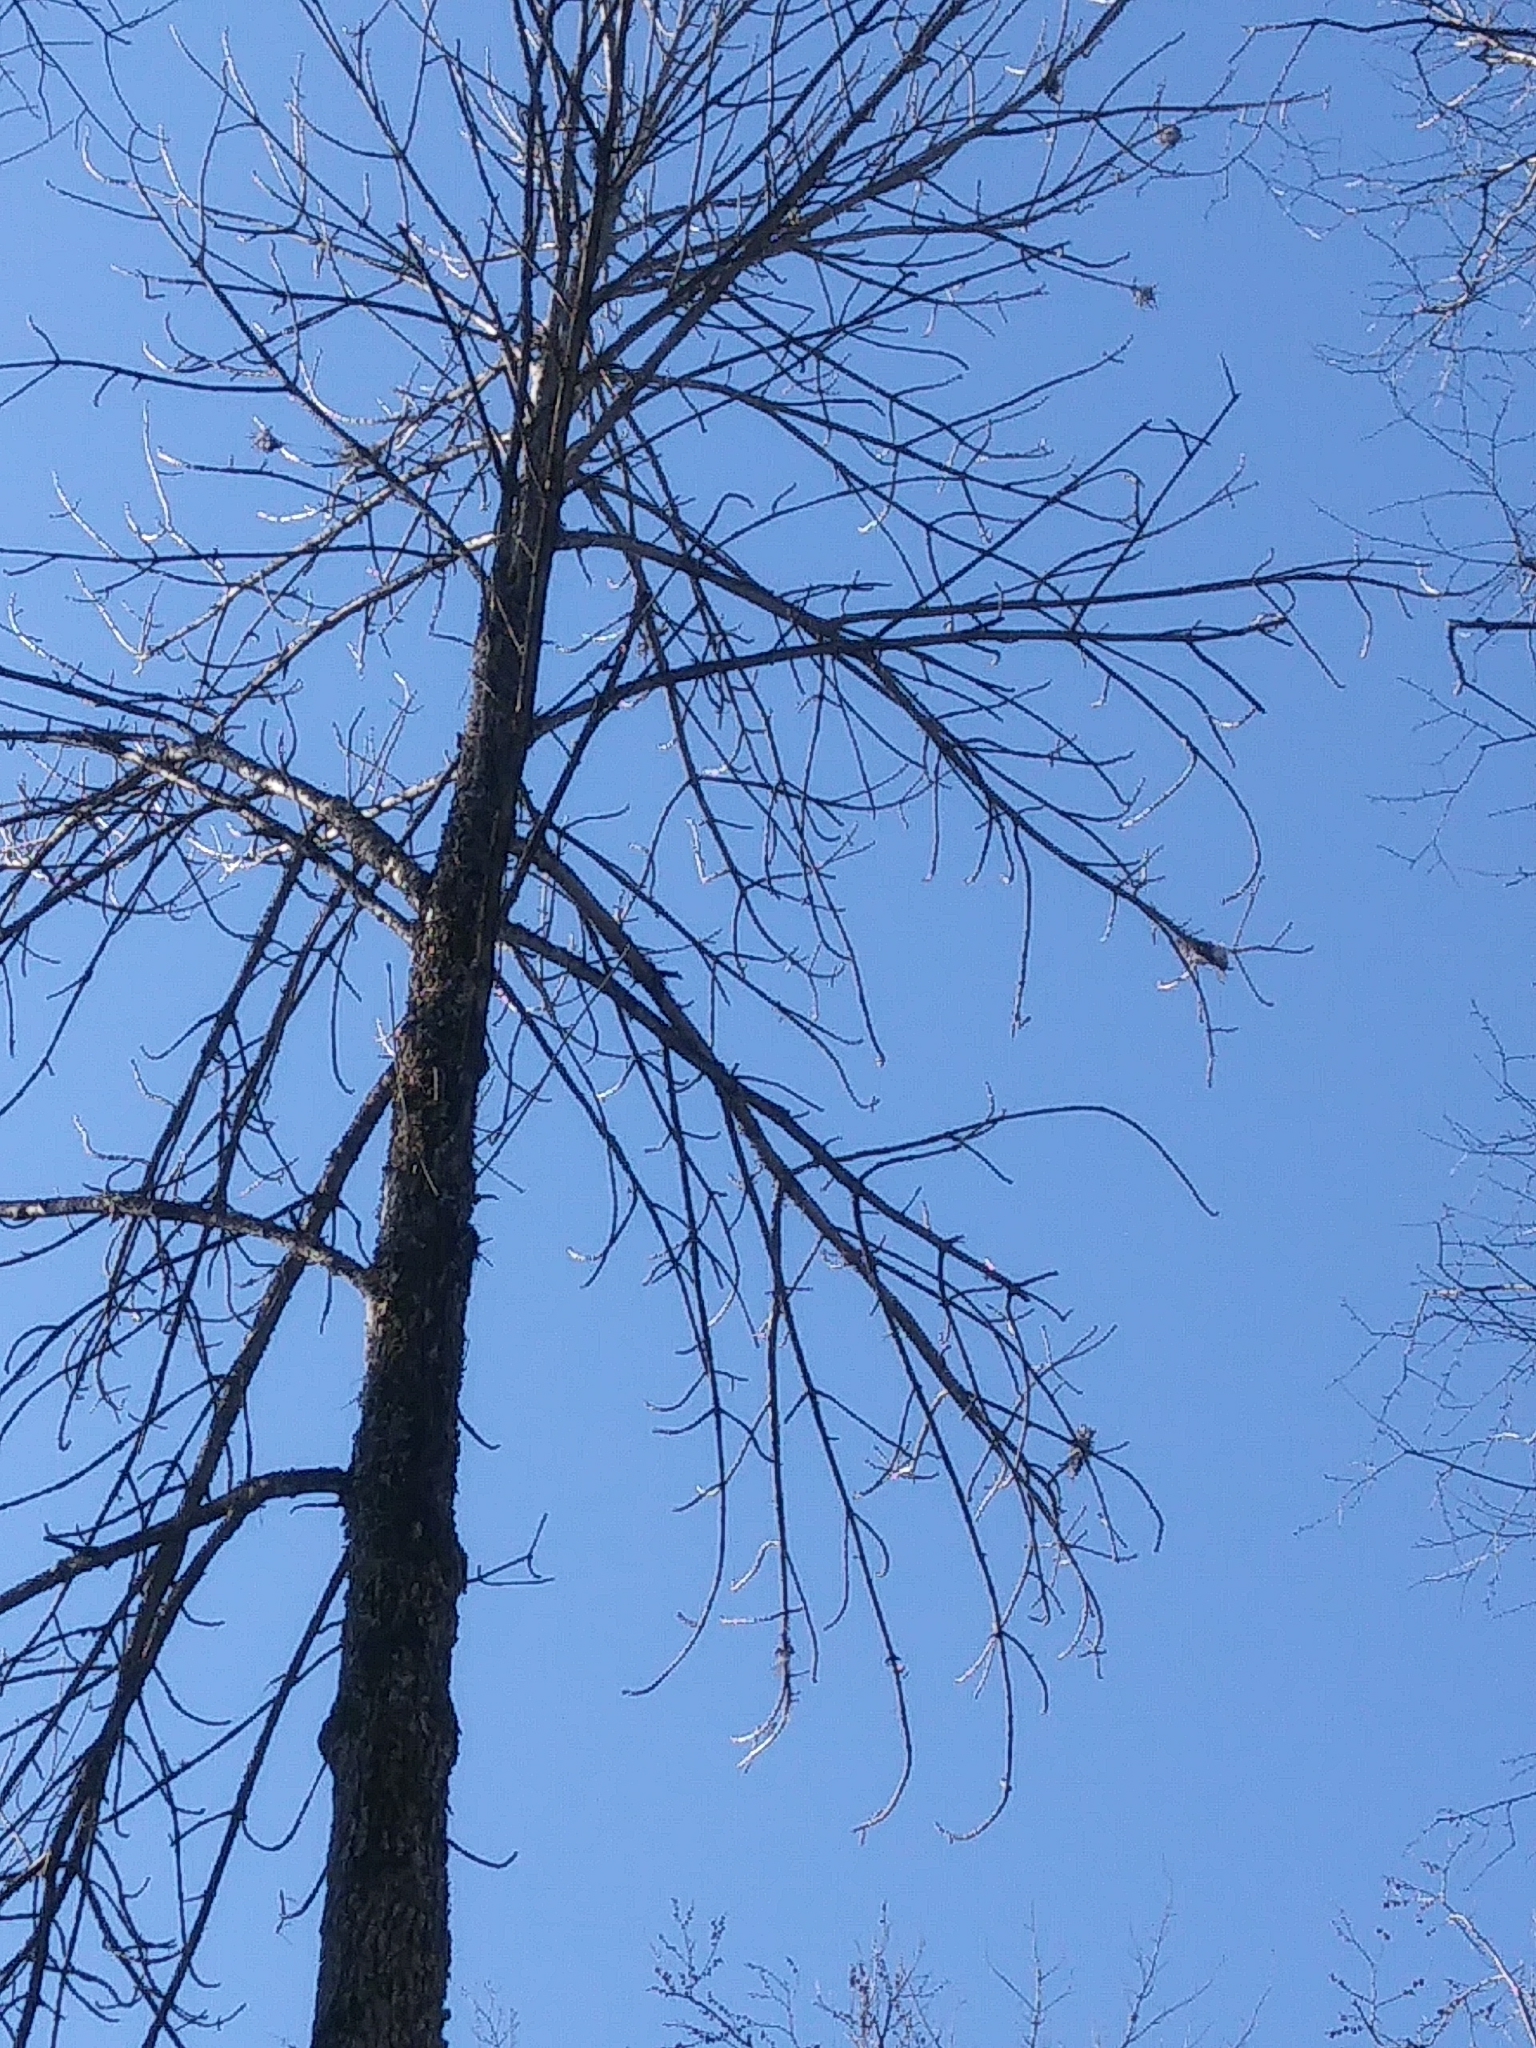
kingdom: Plantae
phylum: Tracheophyta
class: Magnoliopsida
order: Lamiales
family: Oleaceae
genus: Fraxinus
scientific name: Fraxinus nigra
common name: Black ash
